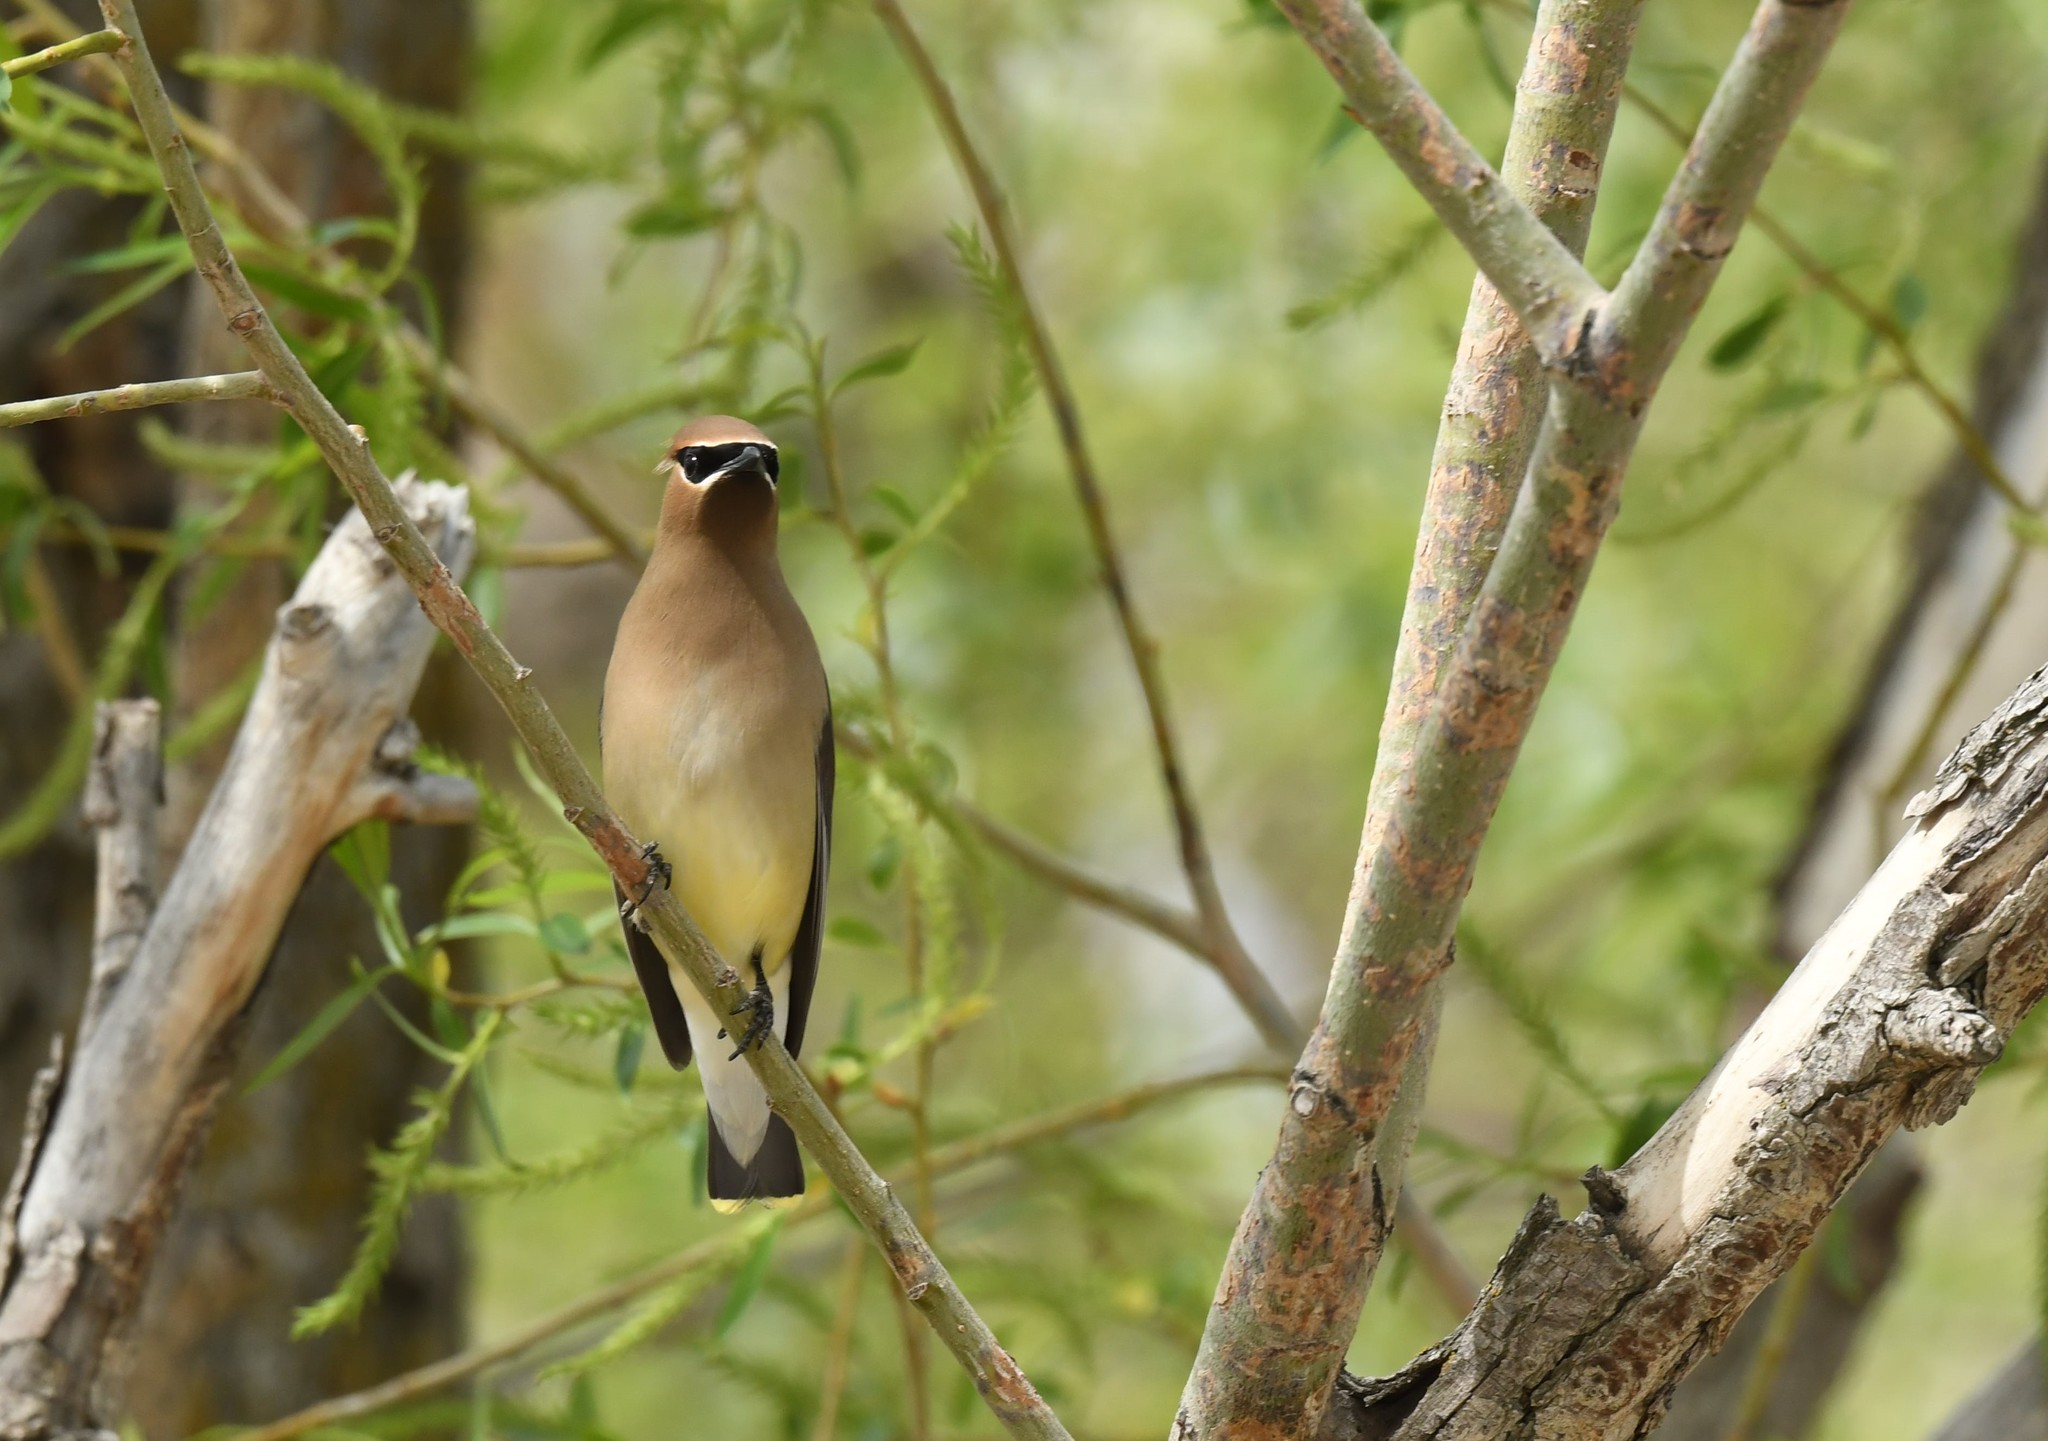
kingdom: Animalia
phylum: Chordata
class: Aves
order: Passeriformes
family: Bombycillidae
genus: Bombycilla
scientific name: Bombycilla cedrorum
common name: Cedar waxwing
